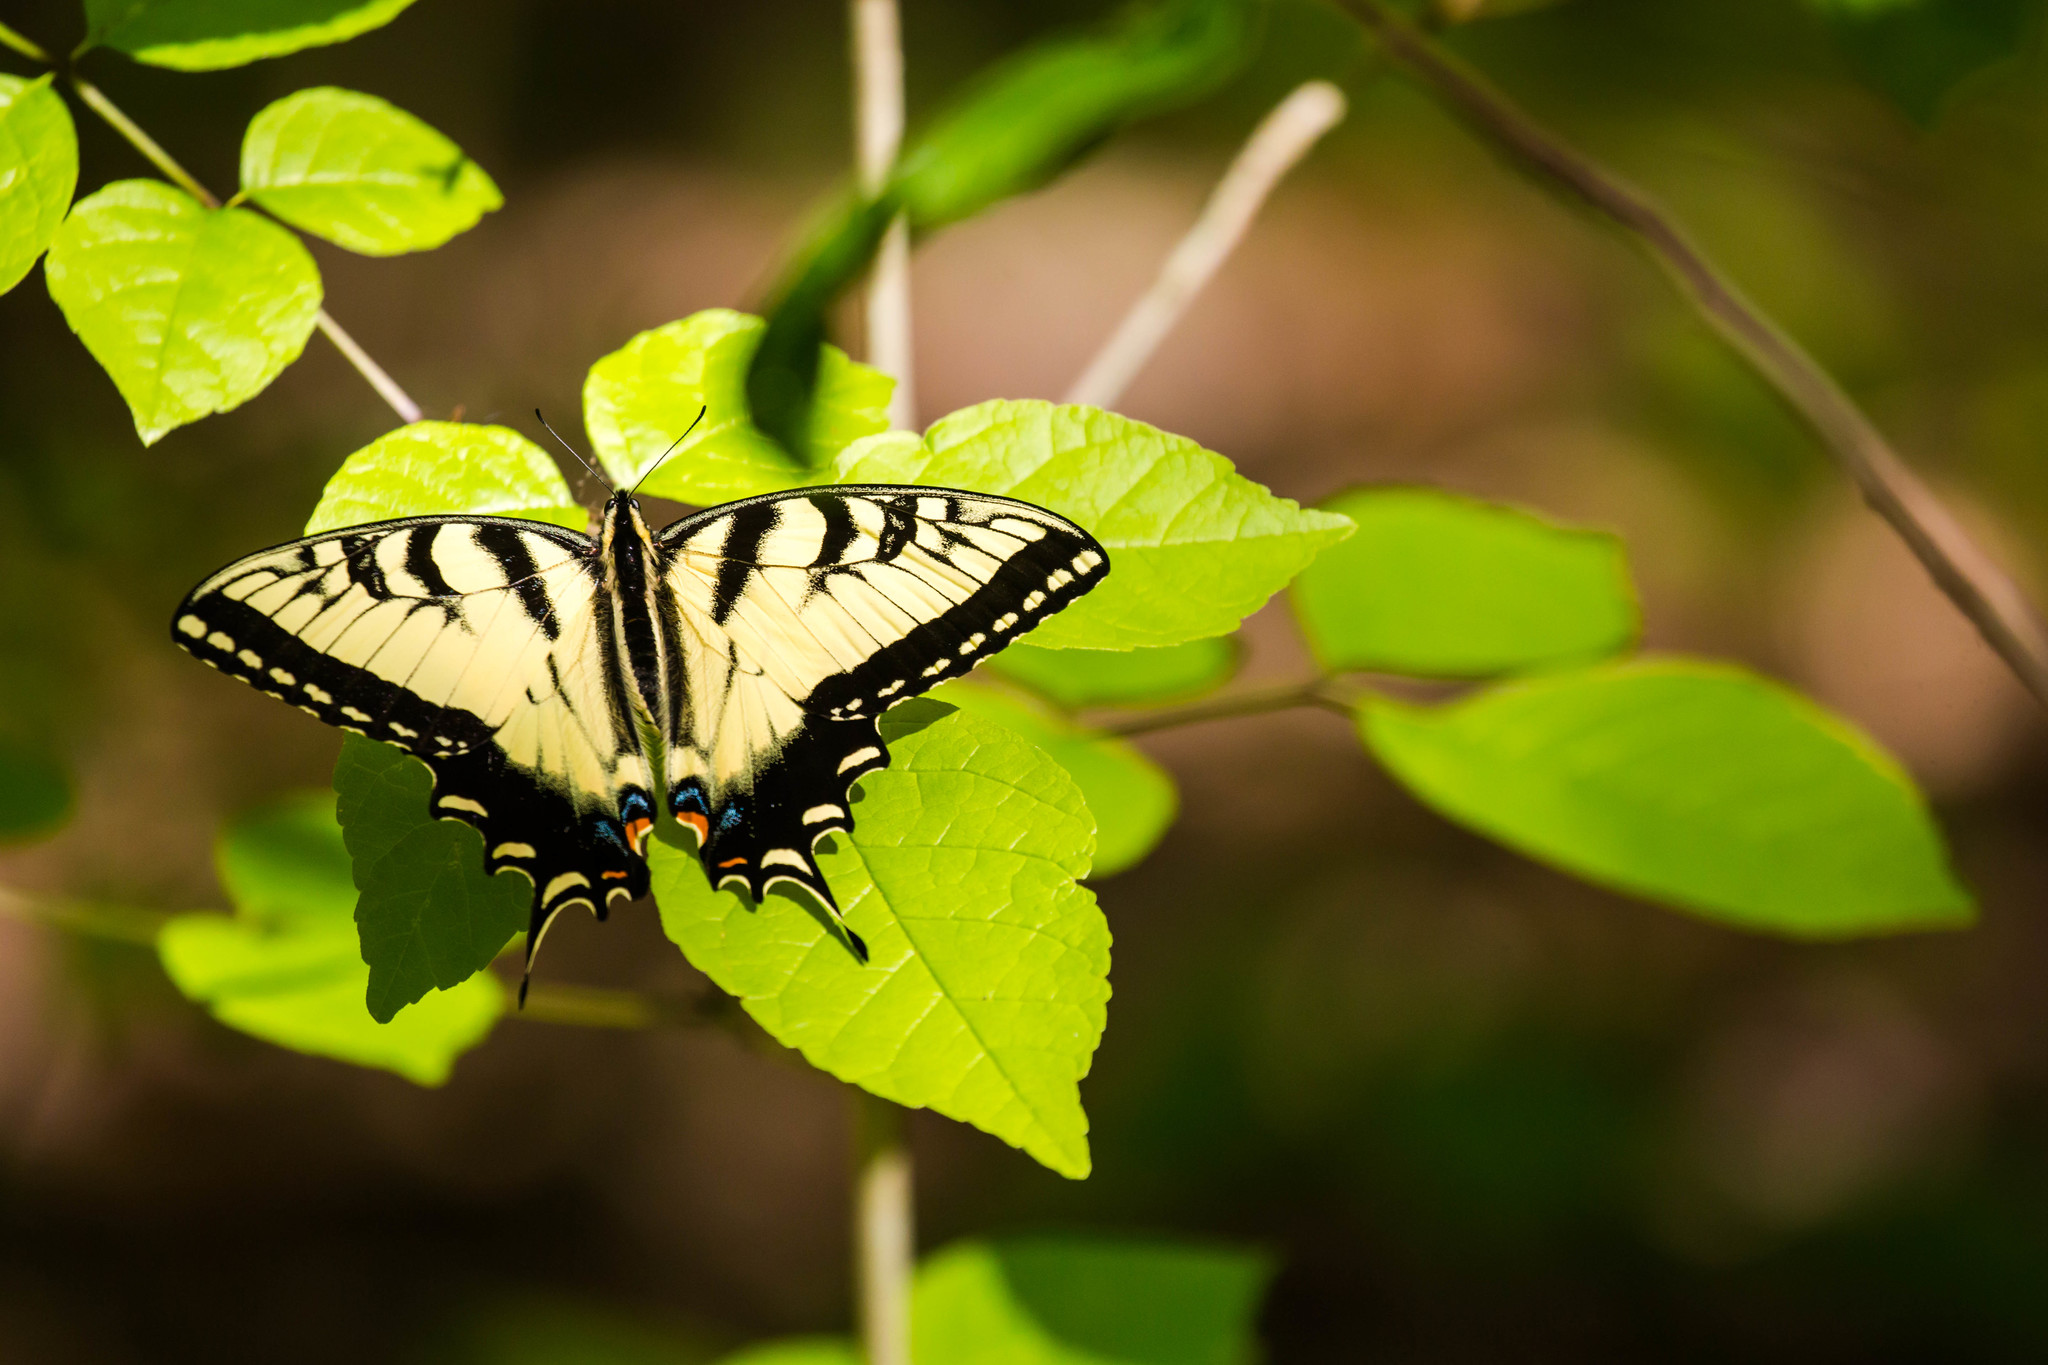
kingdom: Animalia
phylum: Arthropoda
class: Insecta
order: Lepidoptera
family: Papilionidae
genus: Papilio
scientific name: Papilio glaucus
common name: Tiger swallowtail
